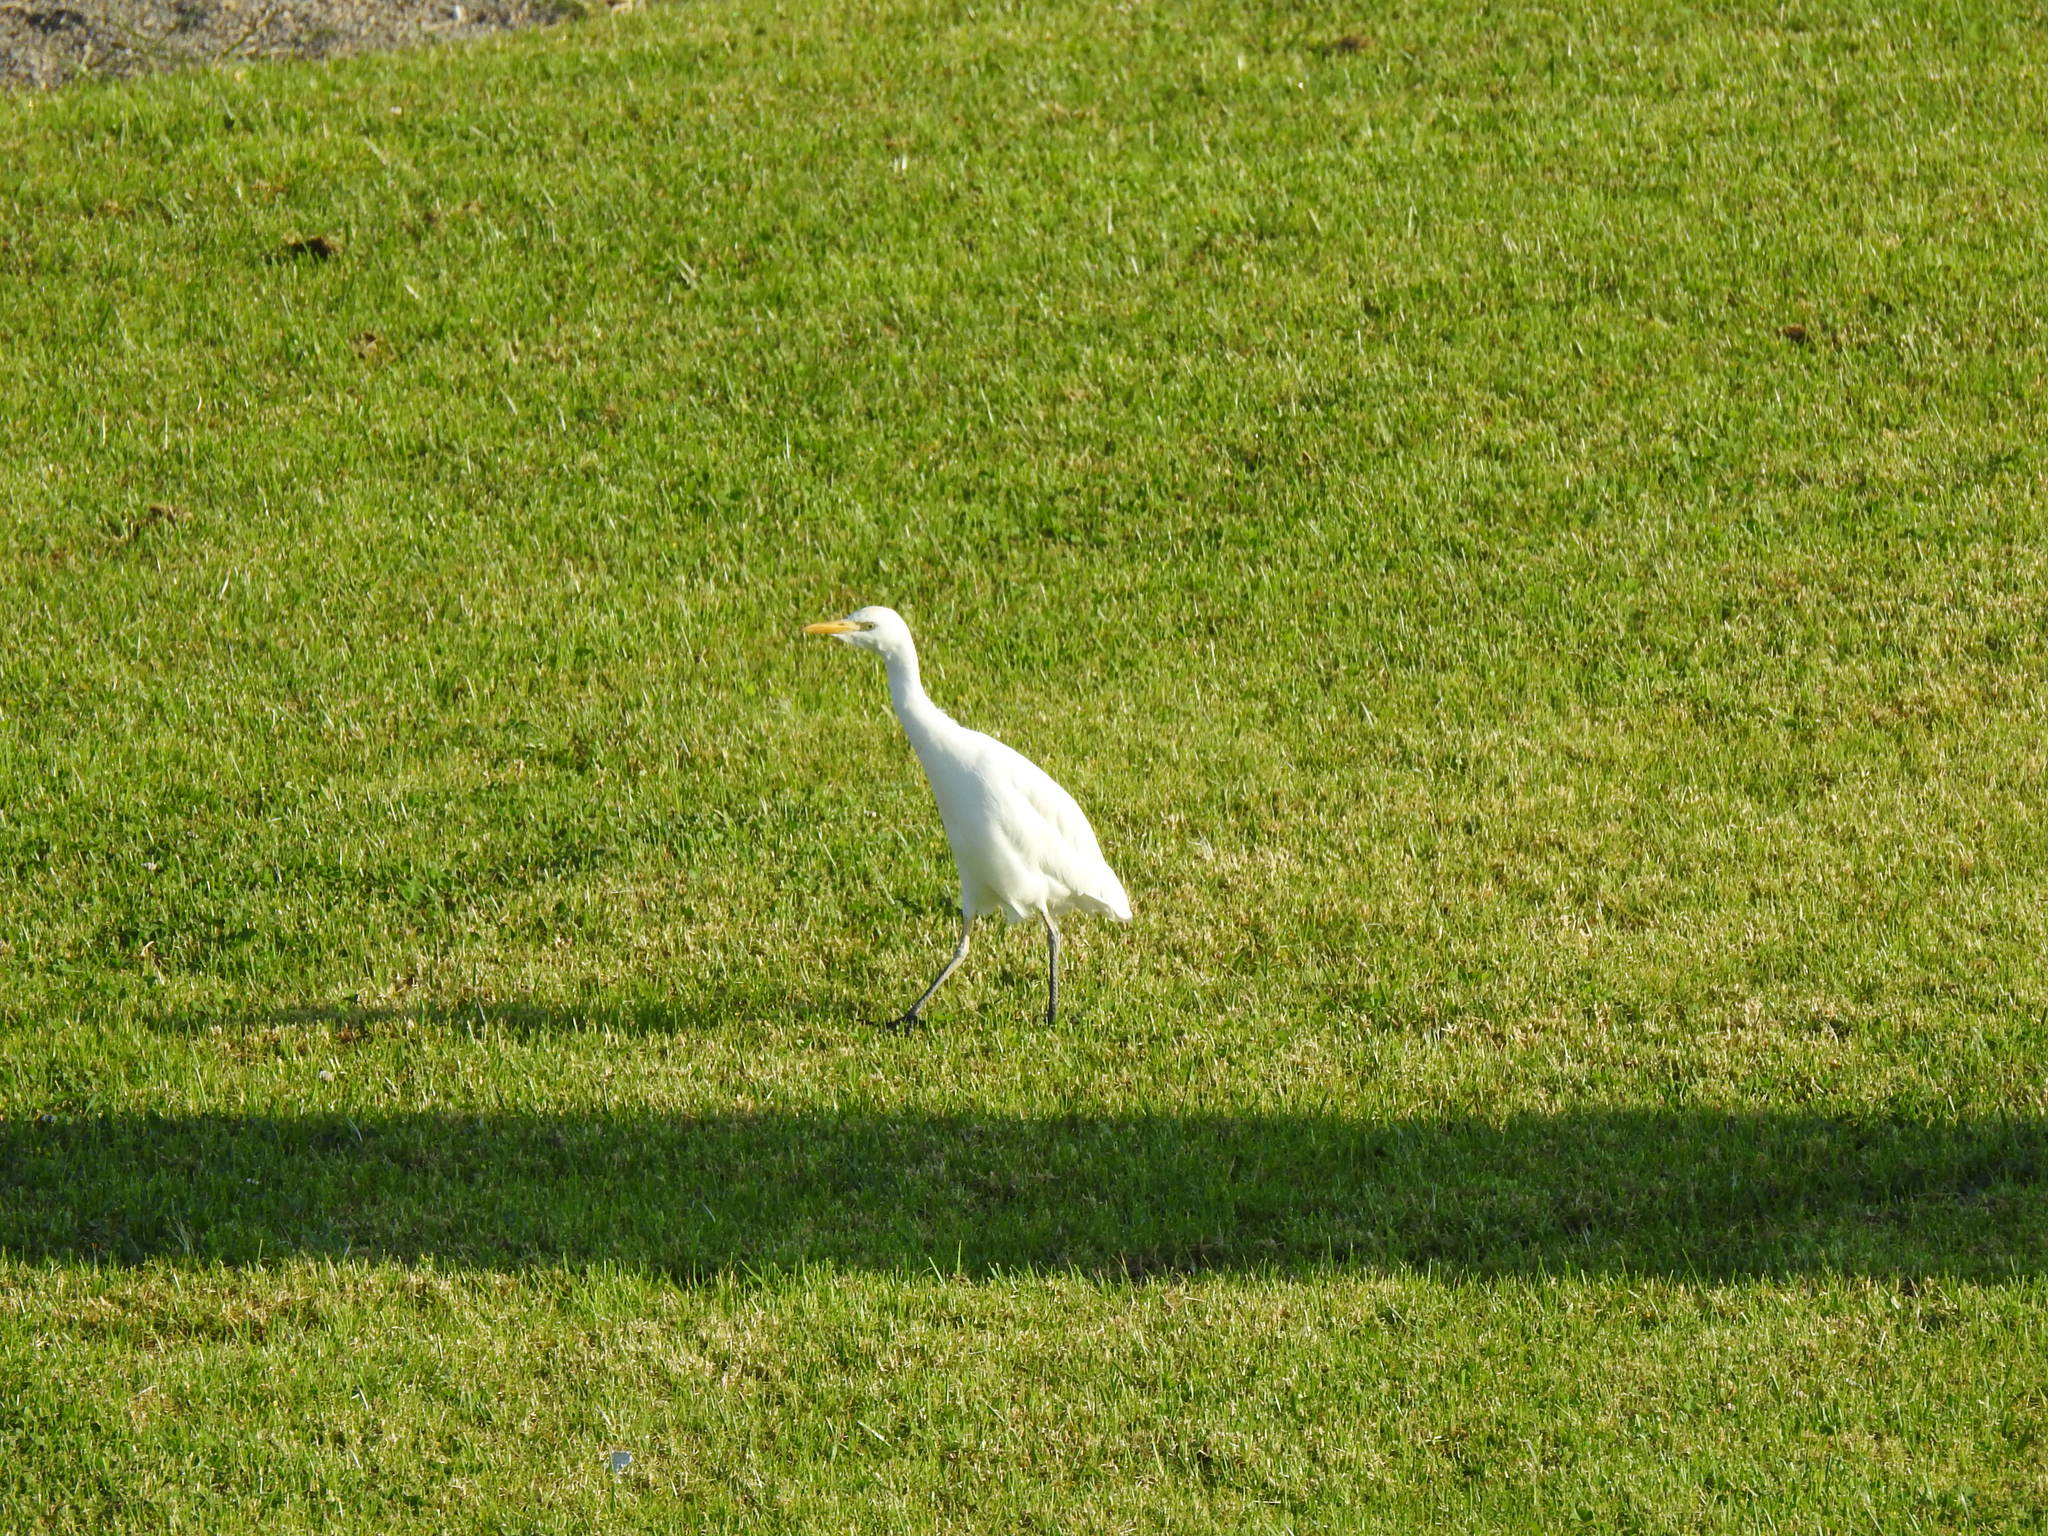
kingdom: Animalia
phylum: Chordata
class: Aves
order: Pelecaniformes
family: Ardeidae
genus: Bubulcus
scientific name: Bubulcus ibis
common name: Cattle egret
